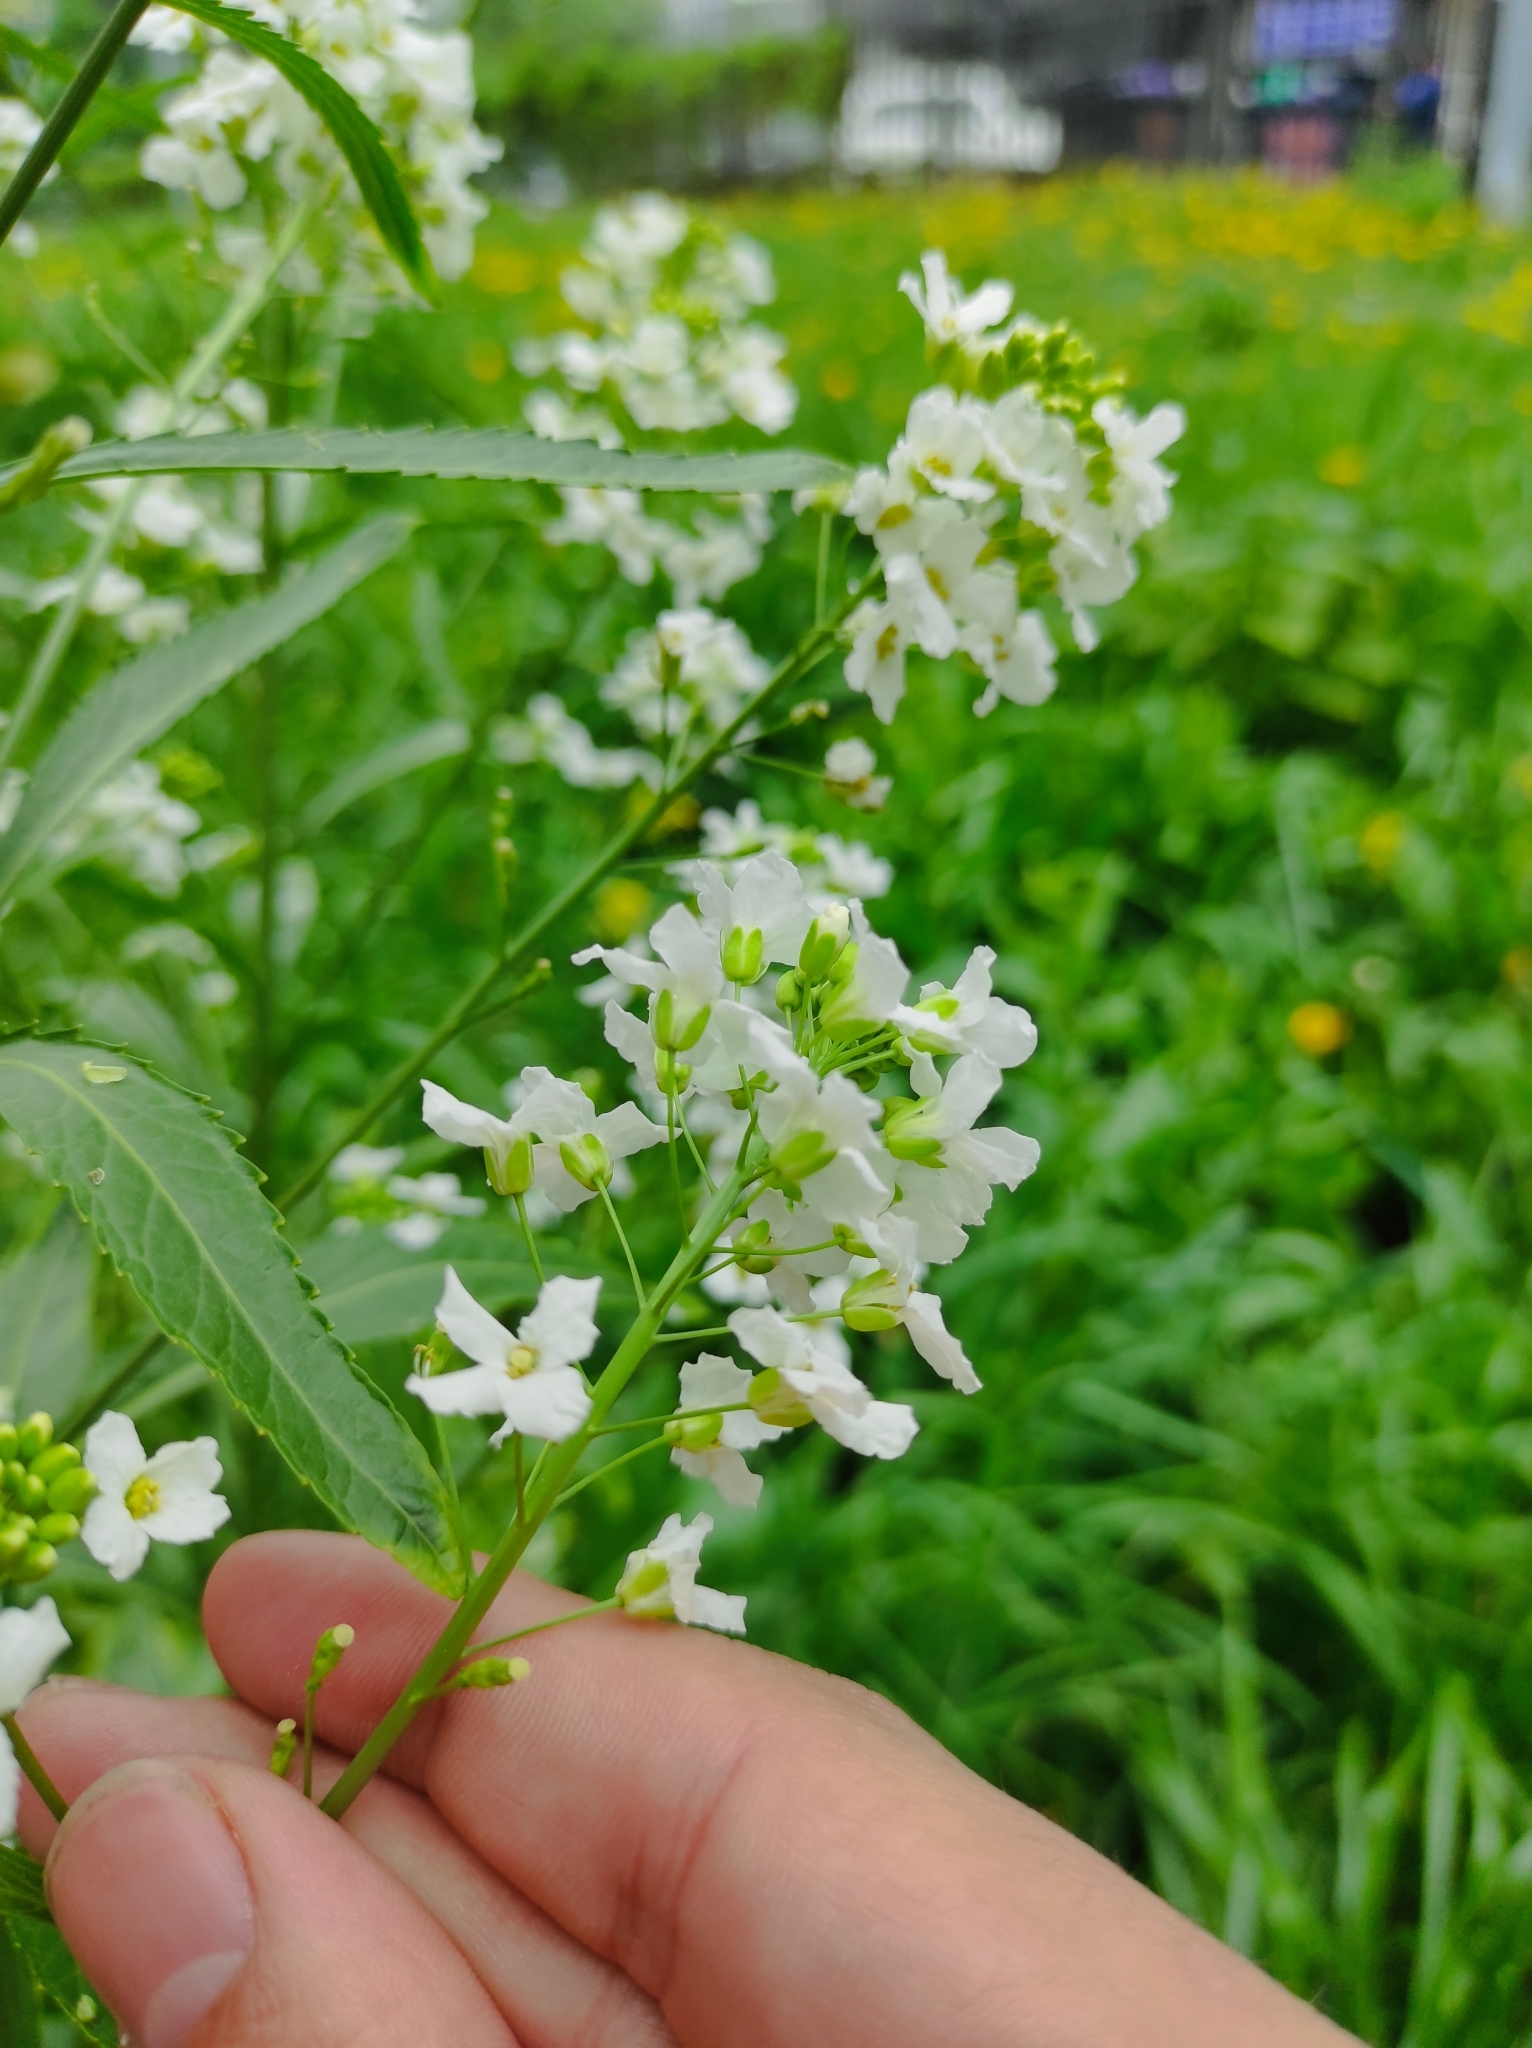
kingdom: Plantae
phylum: Tracheophyta
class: Magnoliopsida
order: Brassicales
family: Brassicaceae
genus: Armoracia
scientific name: Armoracia rusticana
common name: Horseradish
